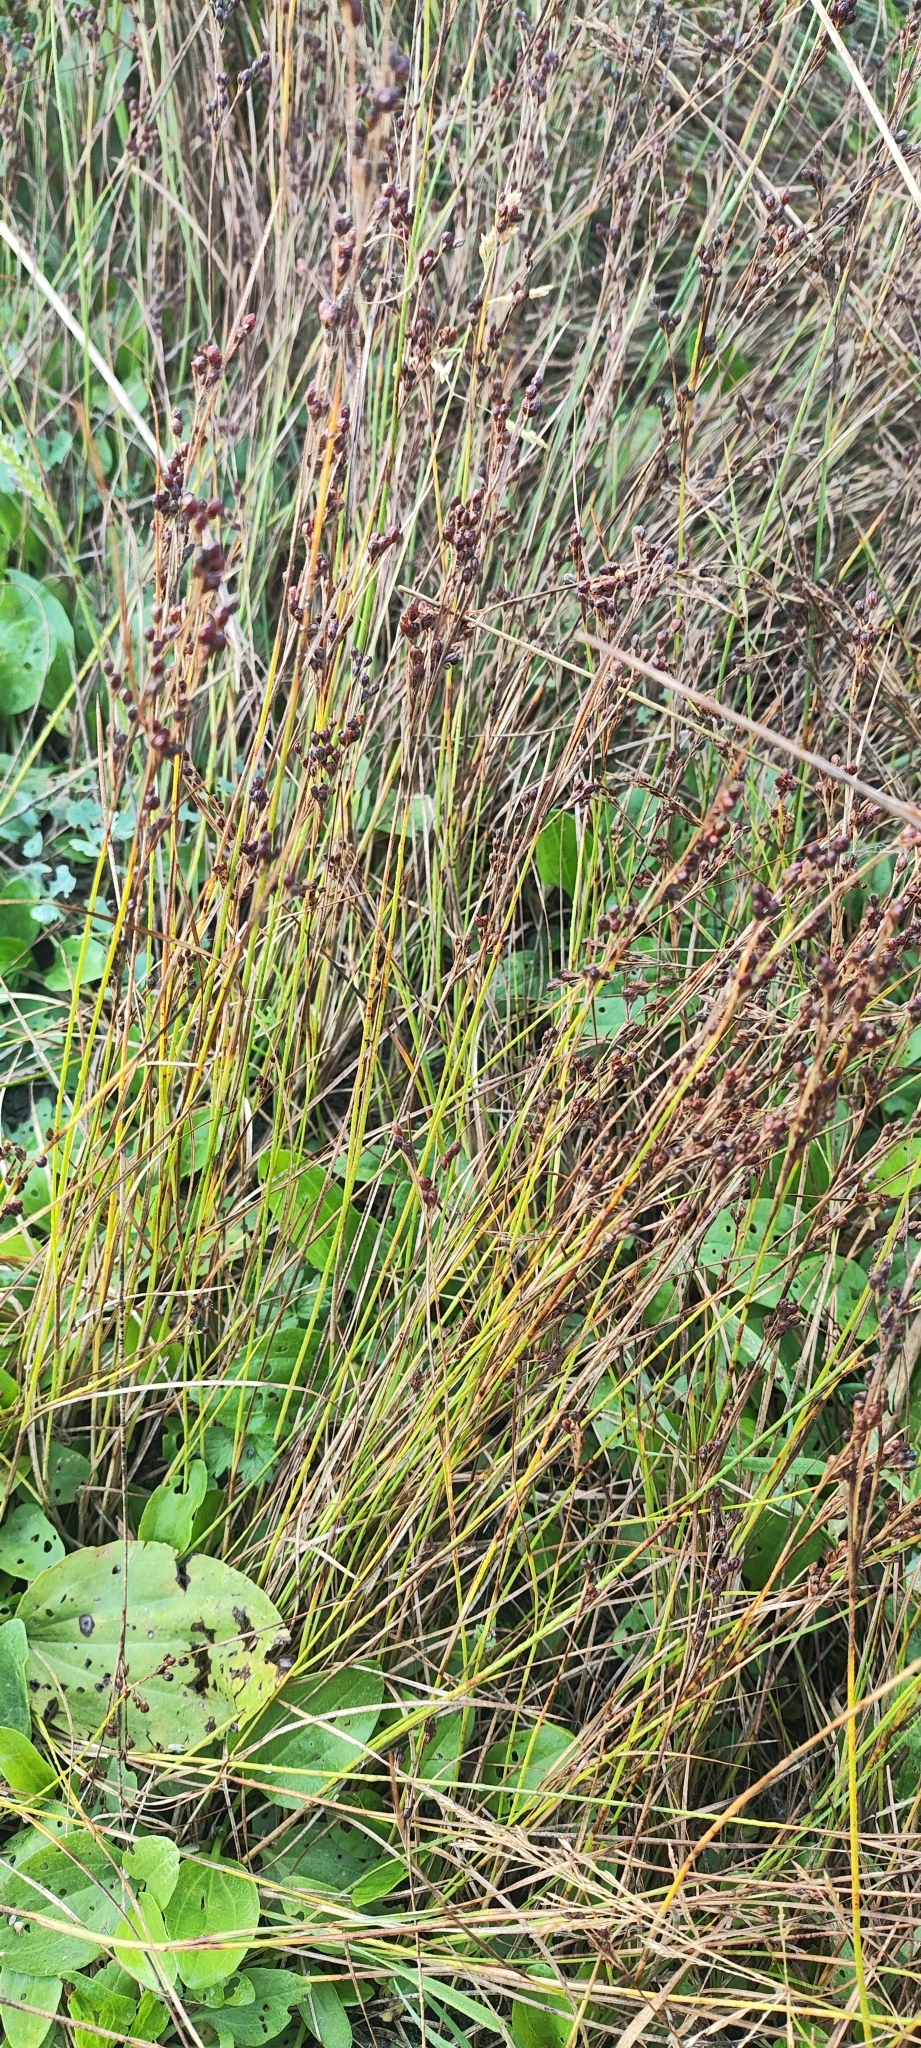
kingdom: Plantae
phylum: Tracheophyta
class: Liliopsida
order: Poales
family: Juncaceae
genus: Juncus
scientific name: Juncus compressus
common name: Round-fruited rush
